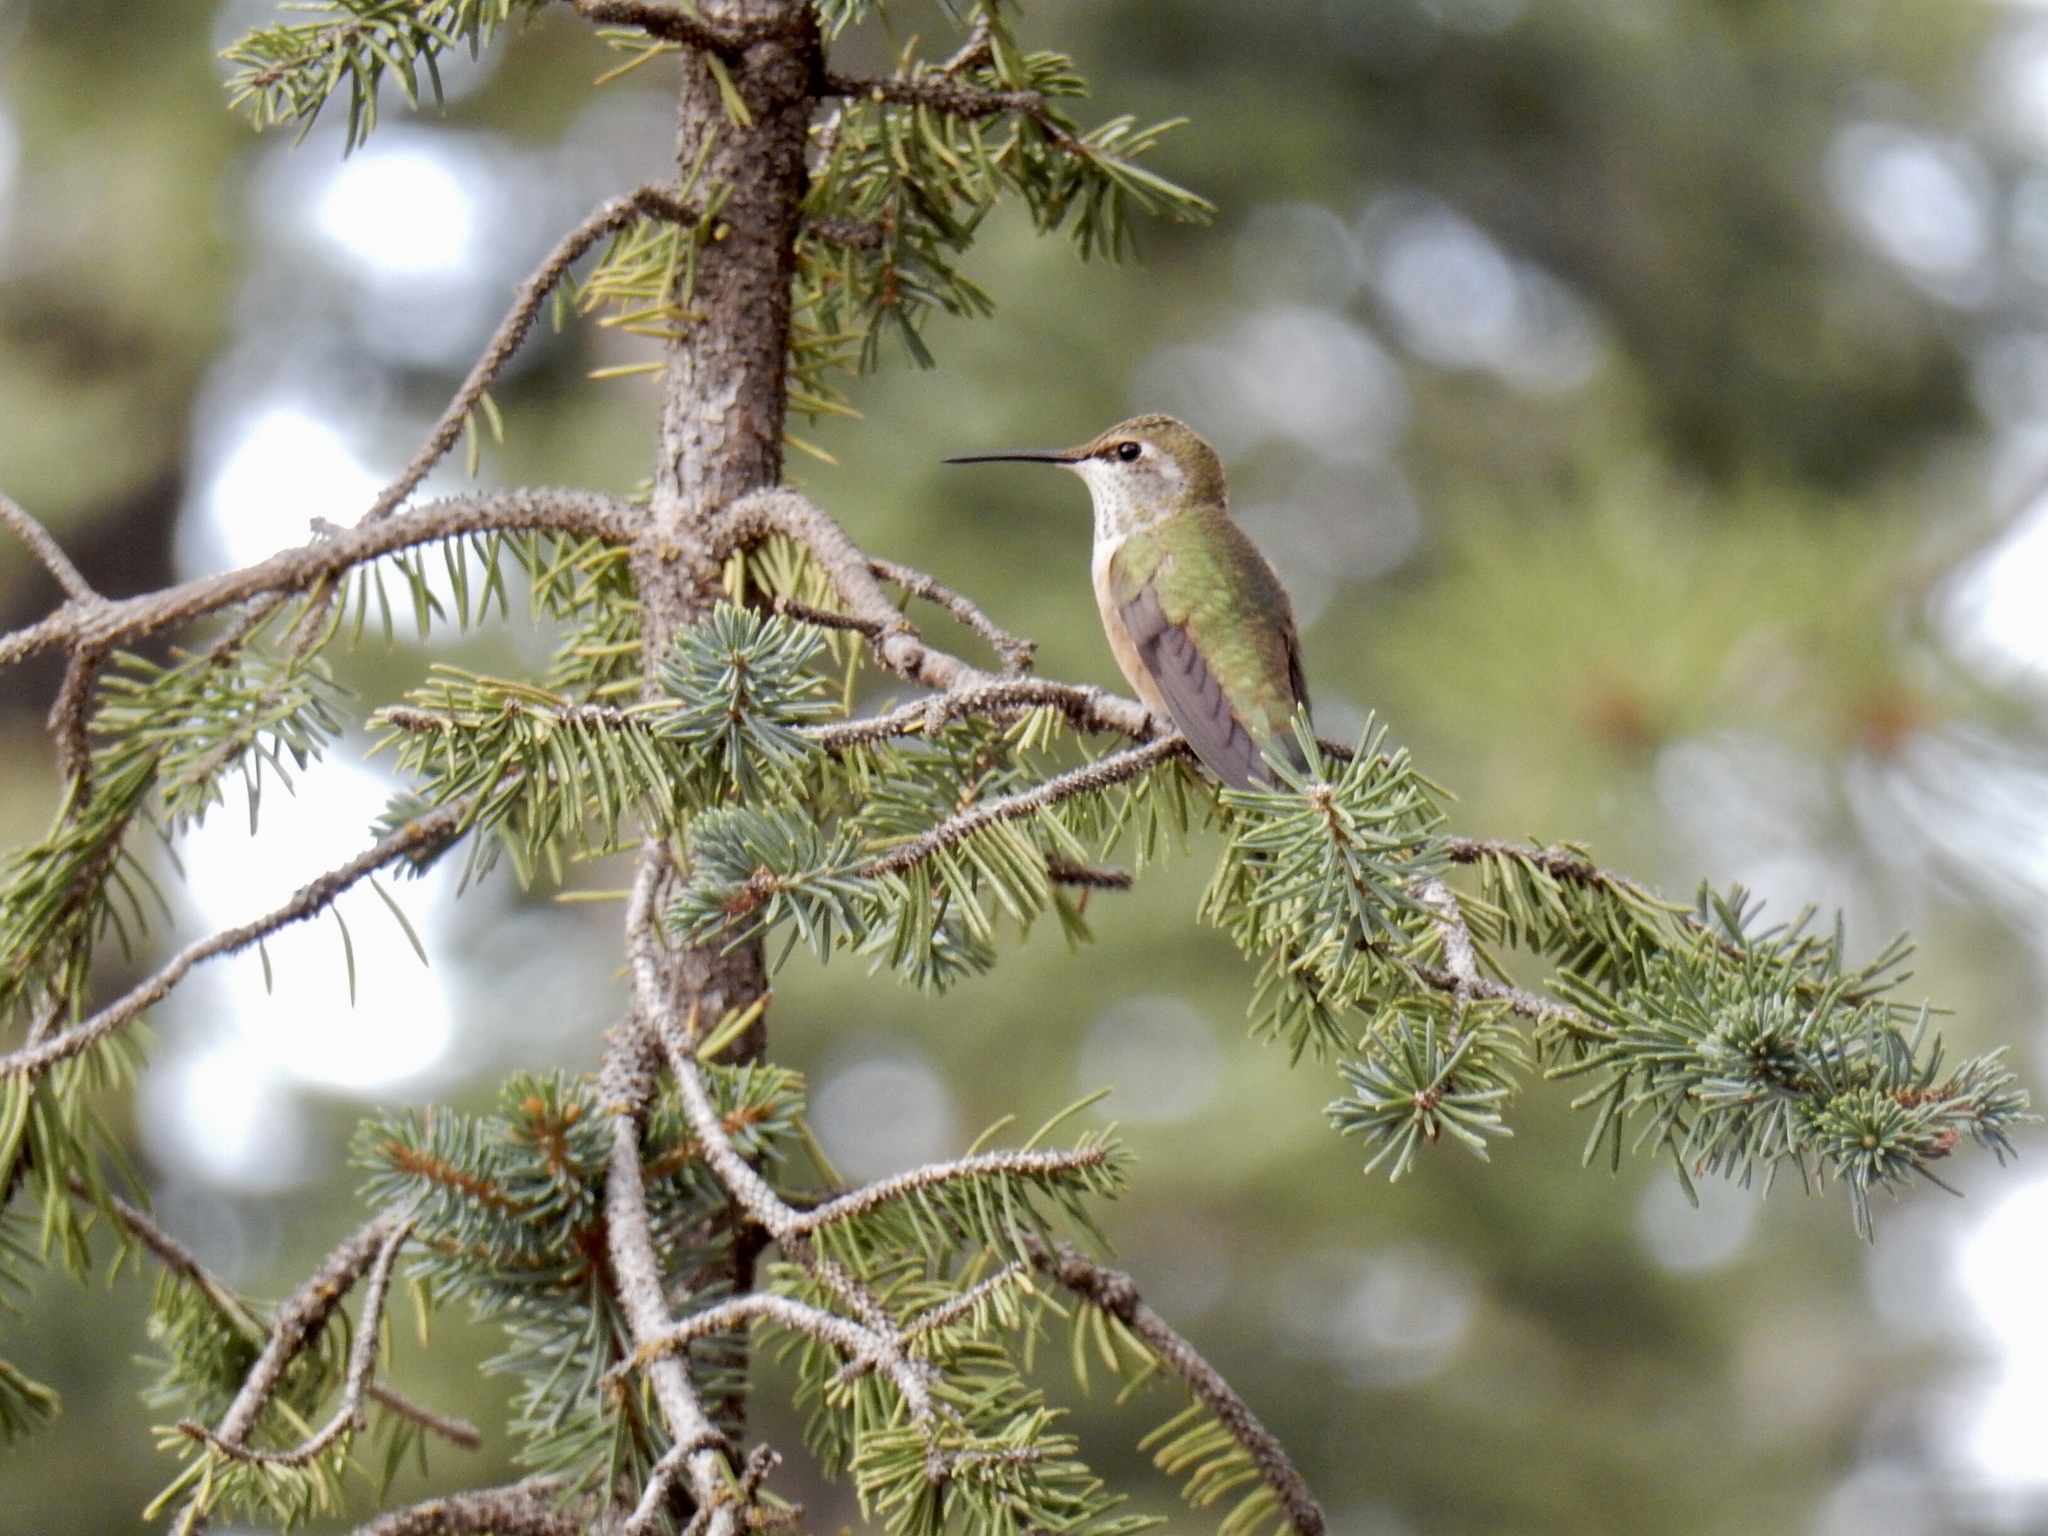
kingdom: Animalia
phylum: Chordata
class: Aves
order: Apodiformes
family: Trochilidae
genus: Selasphorus
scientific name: Selasphorus platycercus
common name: Broad-tailed hummingbird
